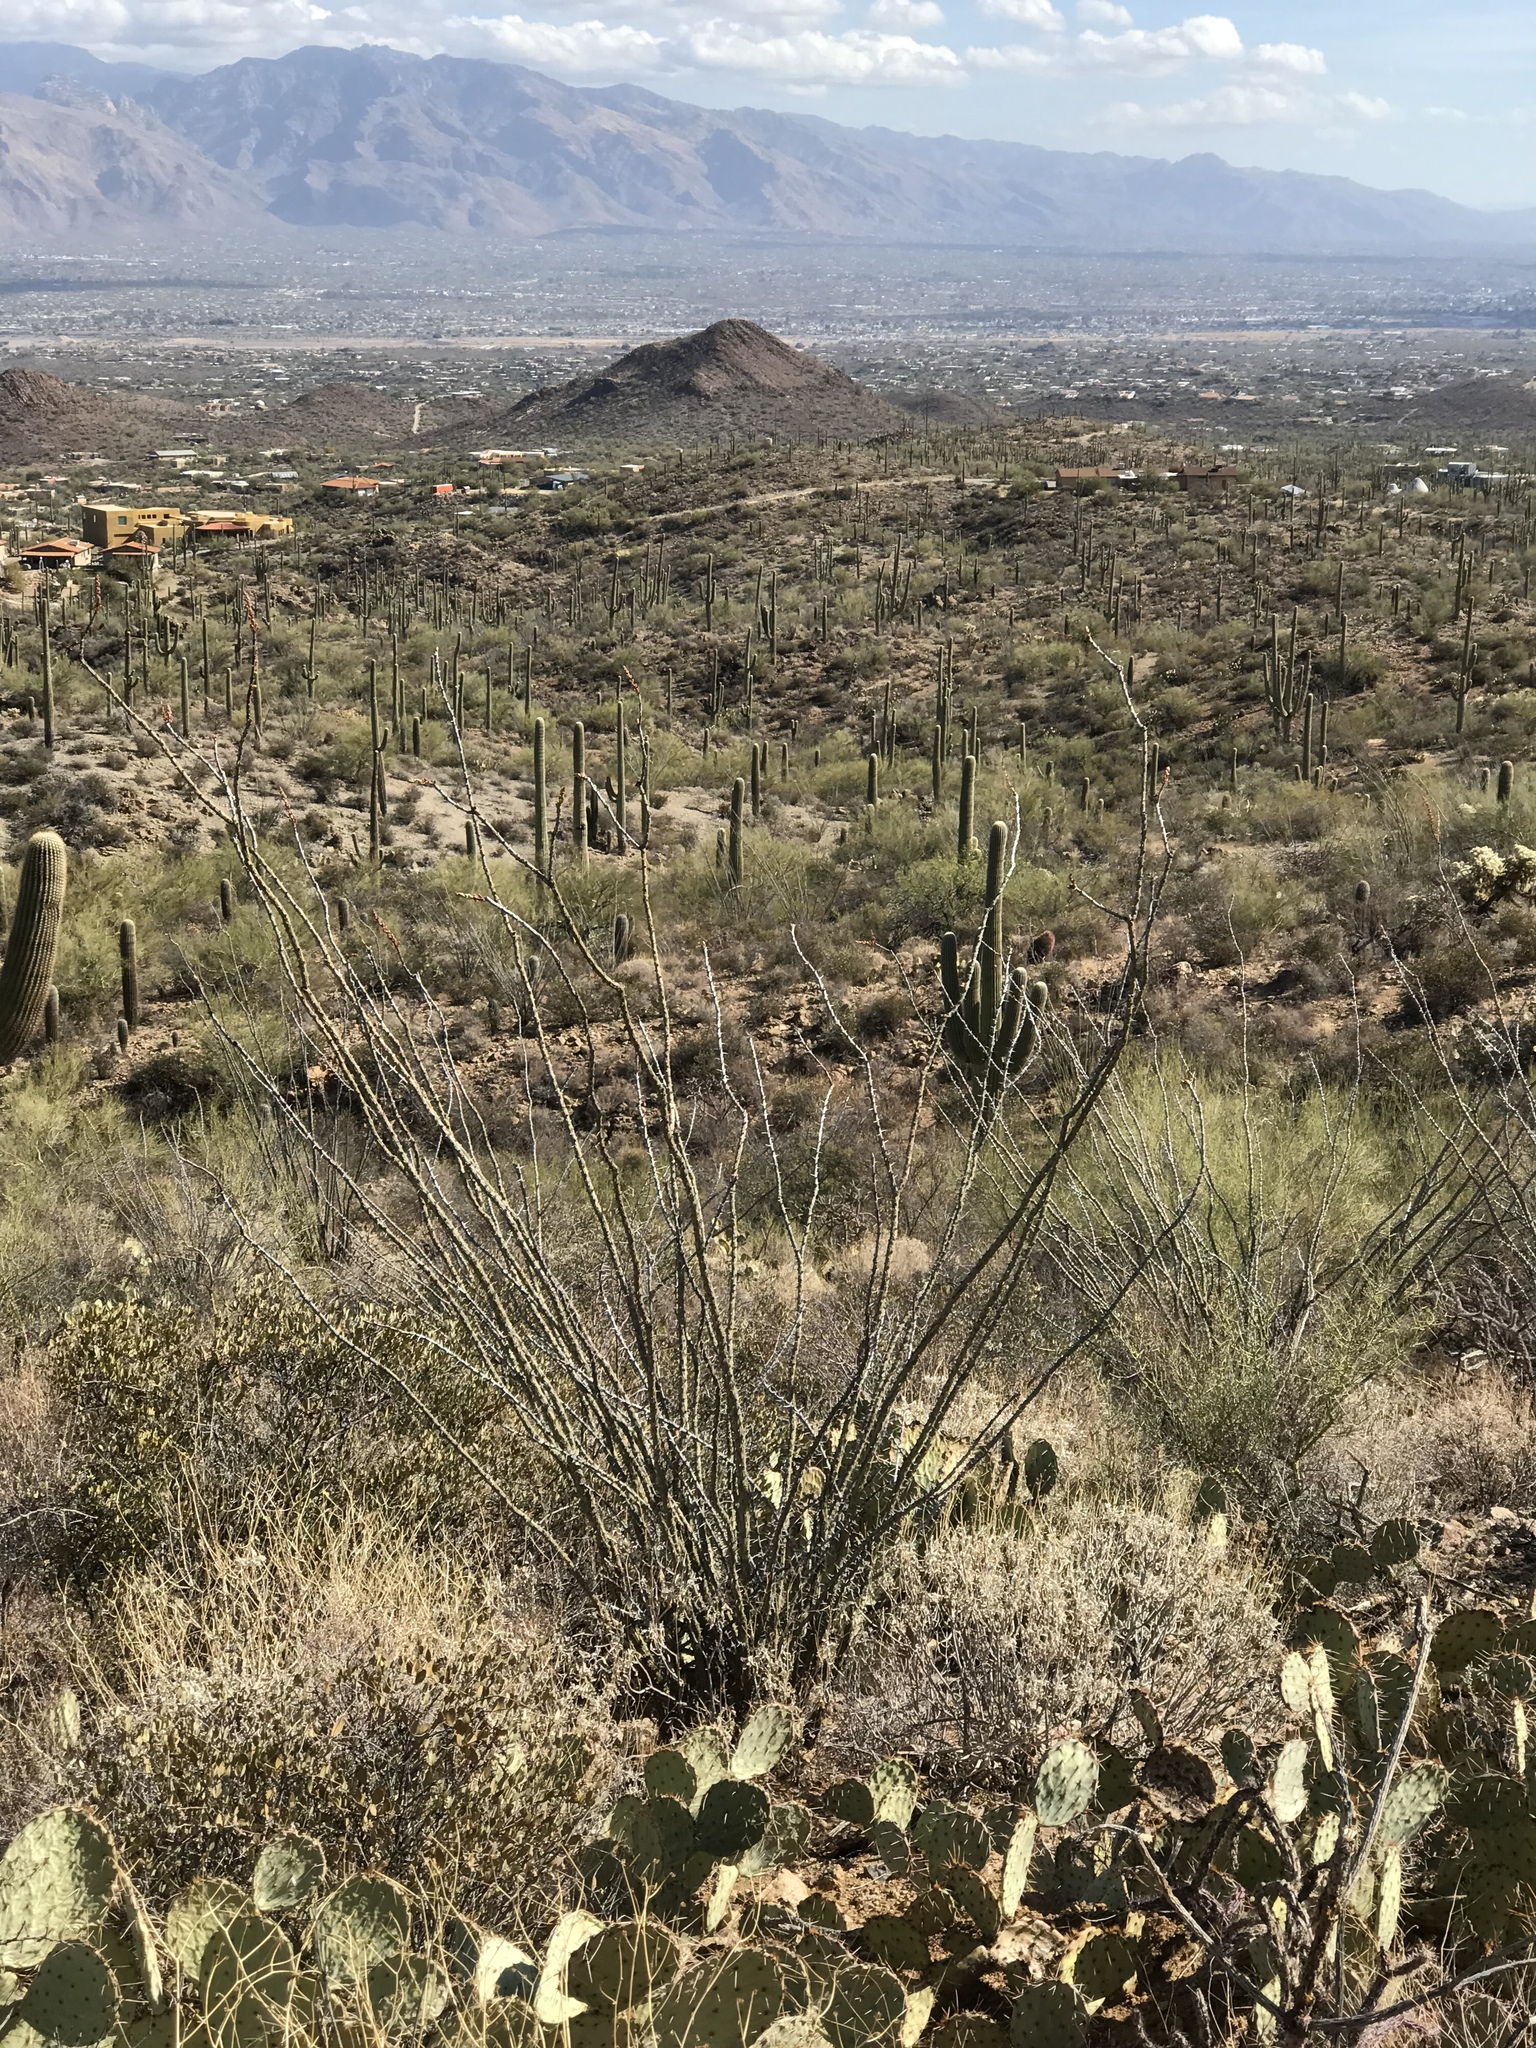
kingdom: Plantae
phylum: Tracheophyta
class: Magnoliopsida
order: Ericales
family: Fouquieriaceae
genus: Fouquieria
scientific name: Fouquieria splendens
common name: Vine-cactus
